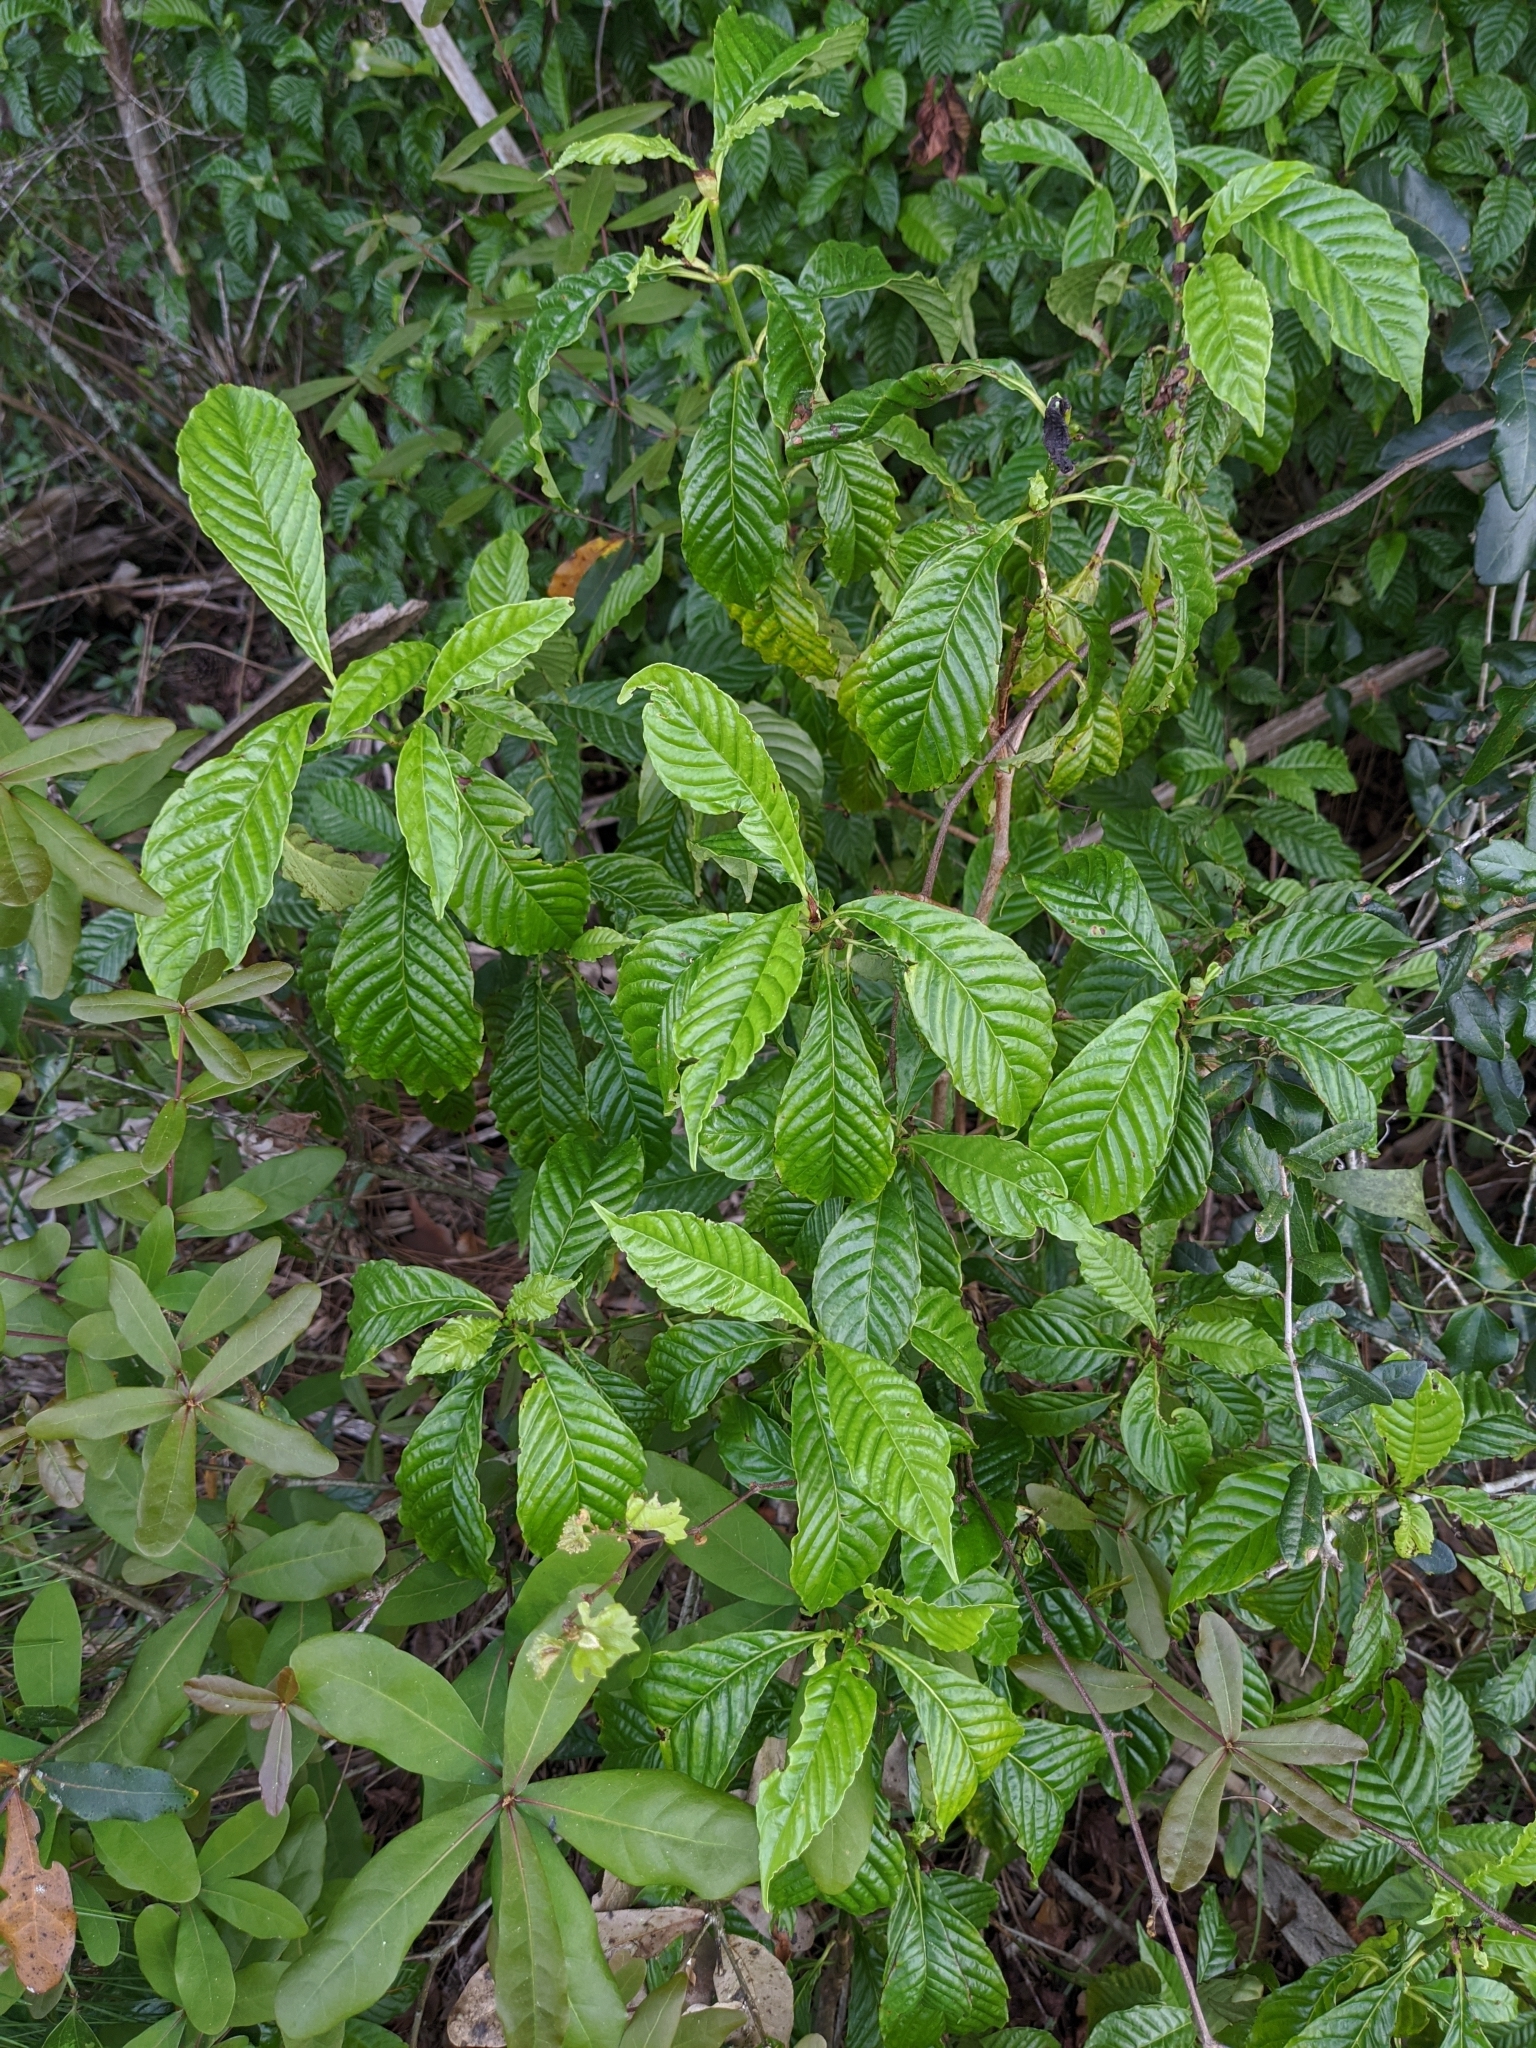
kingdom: Plantae
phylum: Tracheophyta
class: Magnoliopsida
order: Gentianales
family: Rubiaceae
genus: Psychotria
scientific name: Psychotria nervosa
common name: Bastard cankerberry
